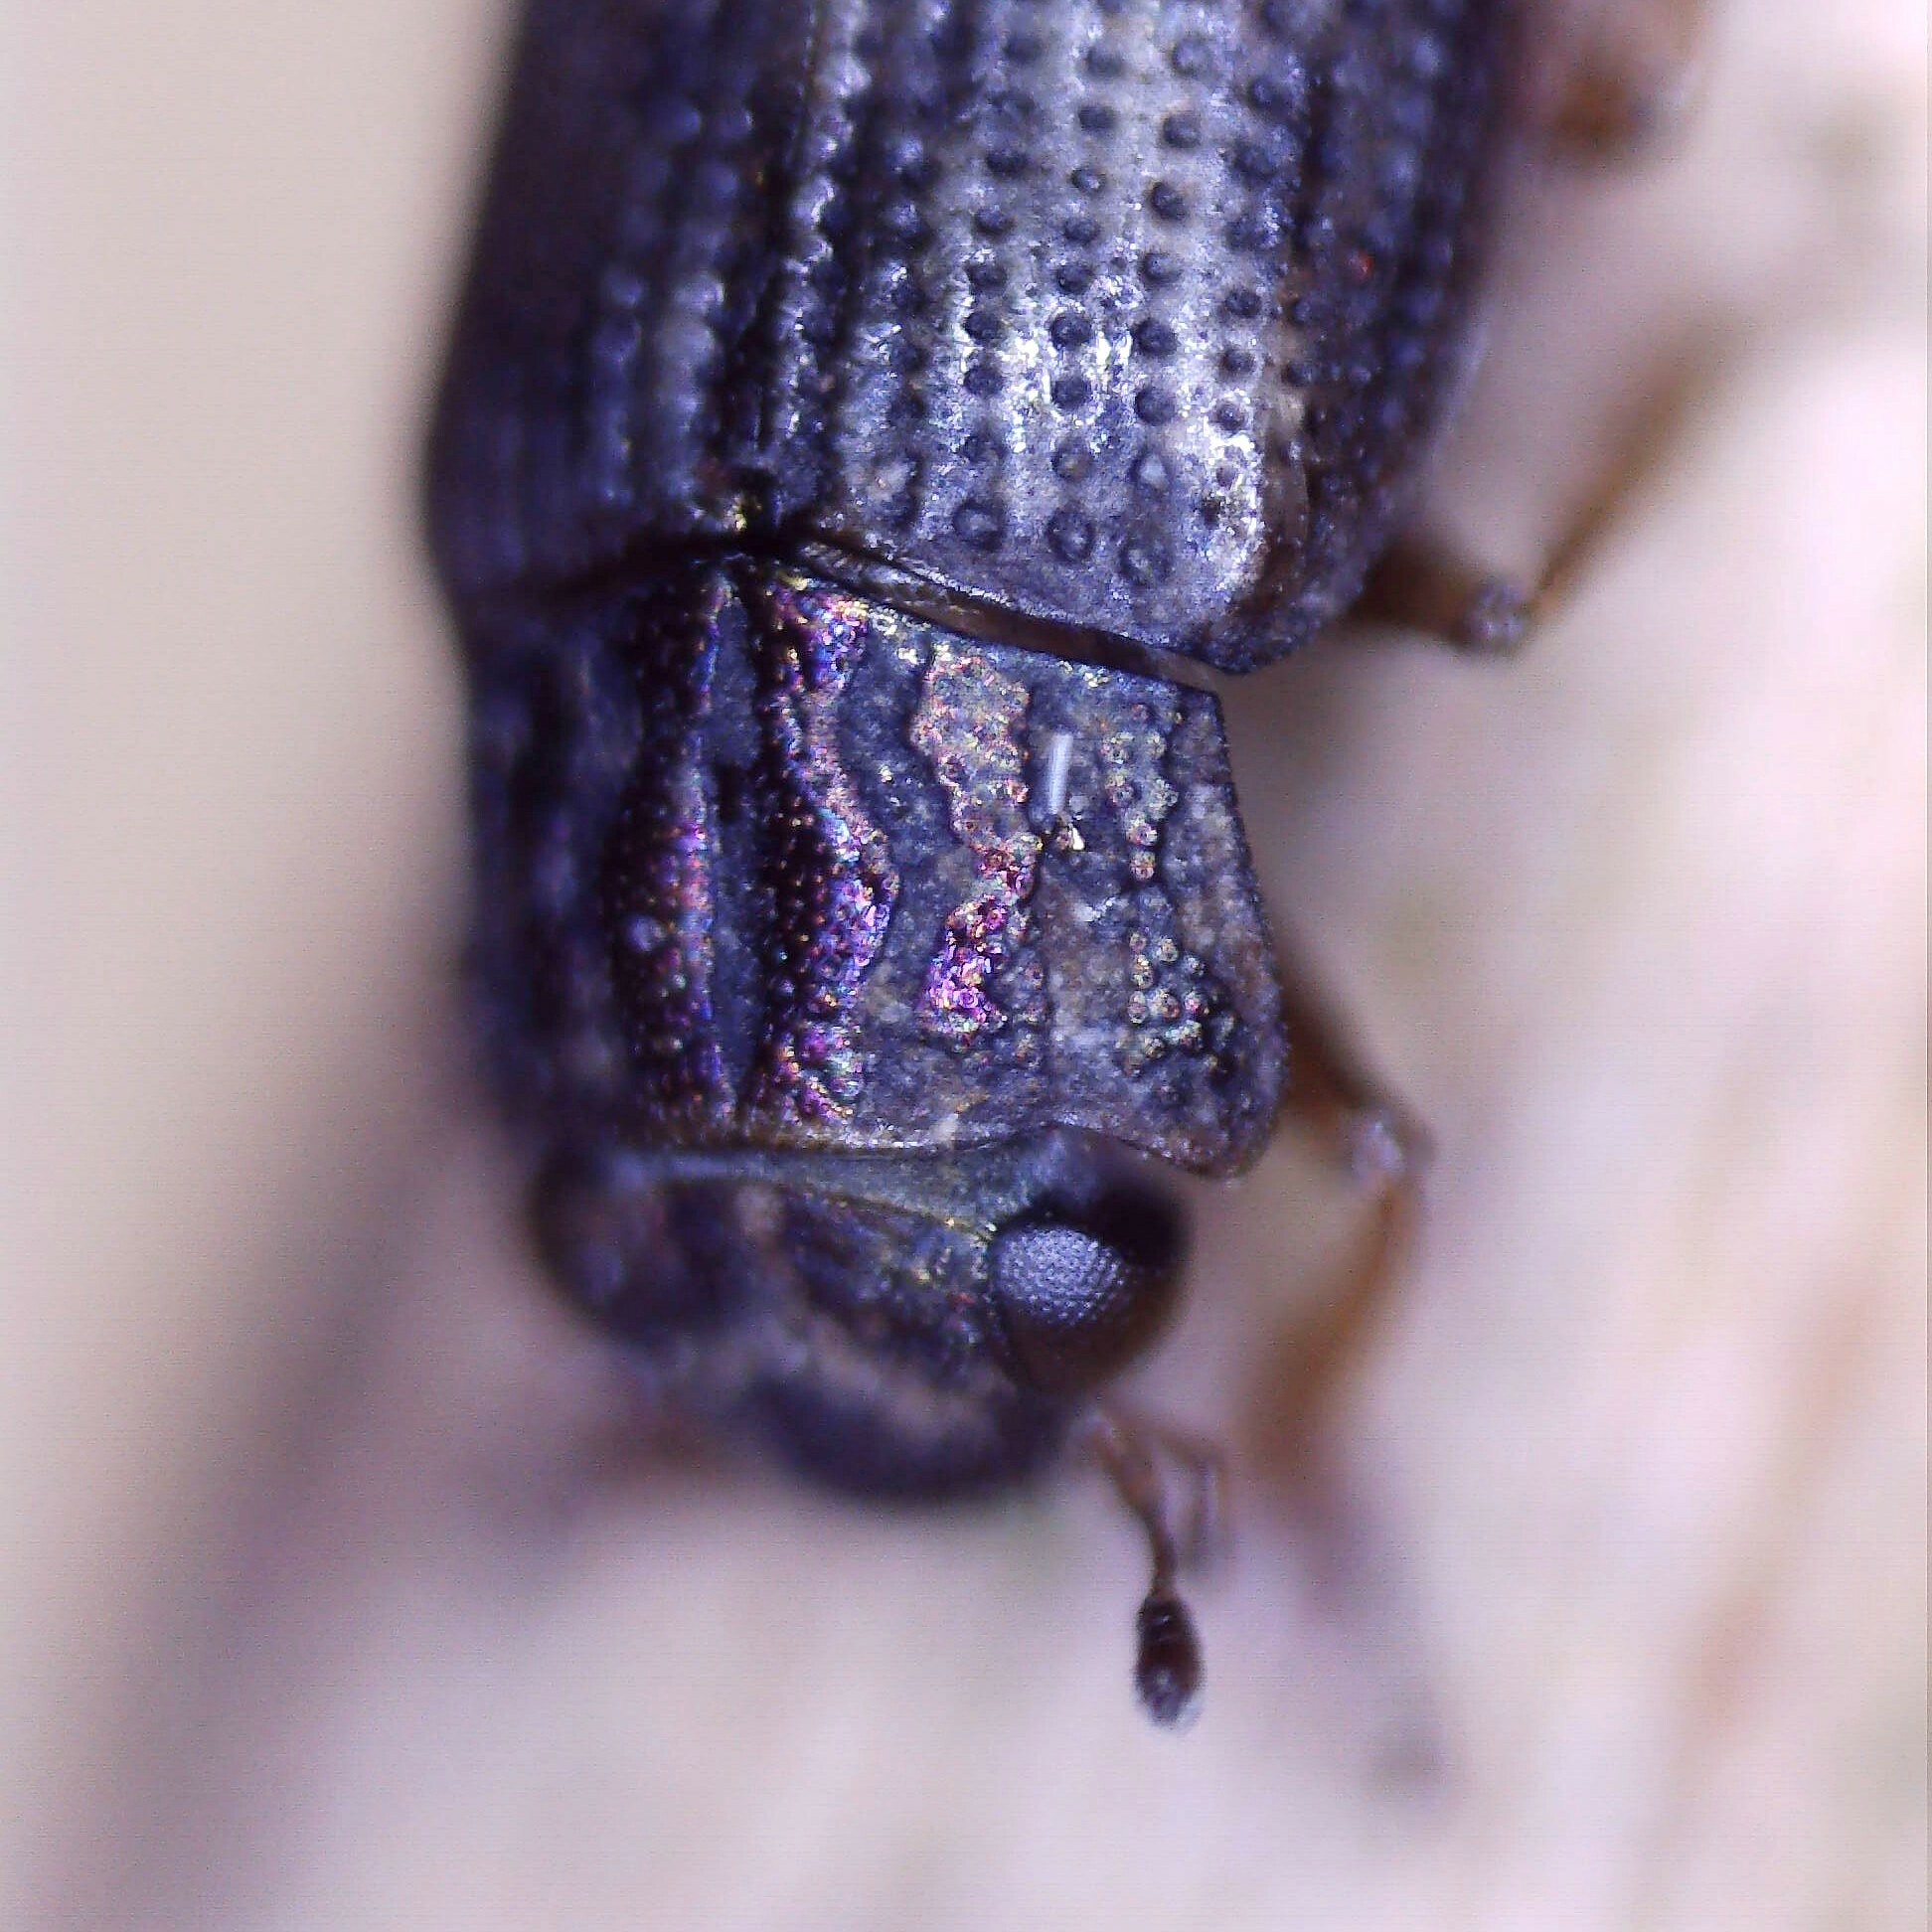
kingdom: Animalia
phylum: Arthropoda
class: Insecta
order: Coleoptera
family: Helophoridae
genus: Helophorus
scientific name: Helophorus brevipalpis
